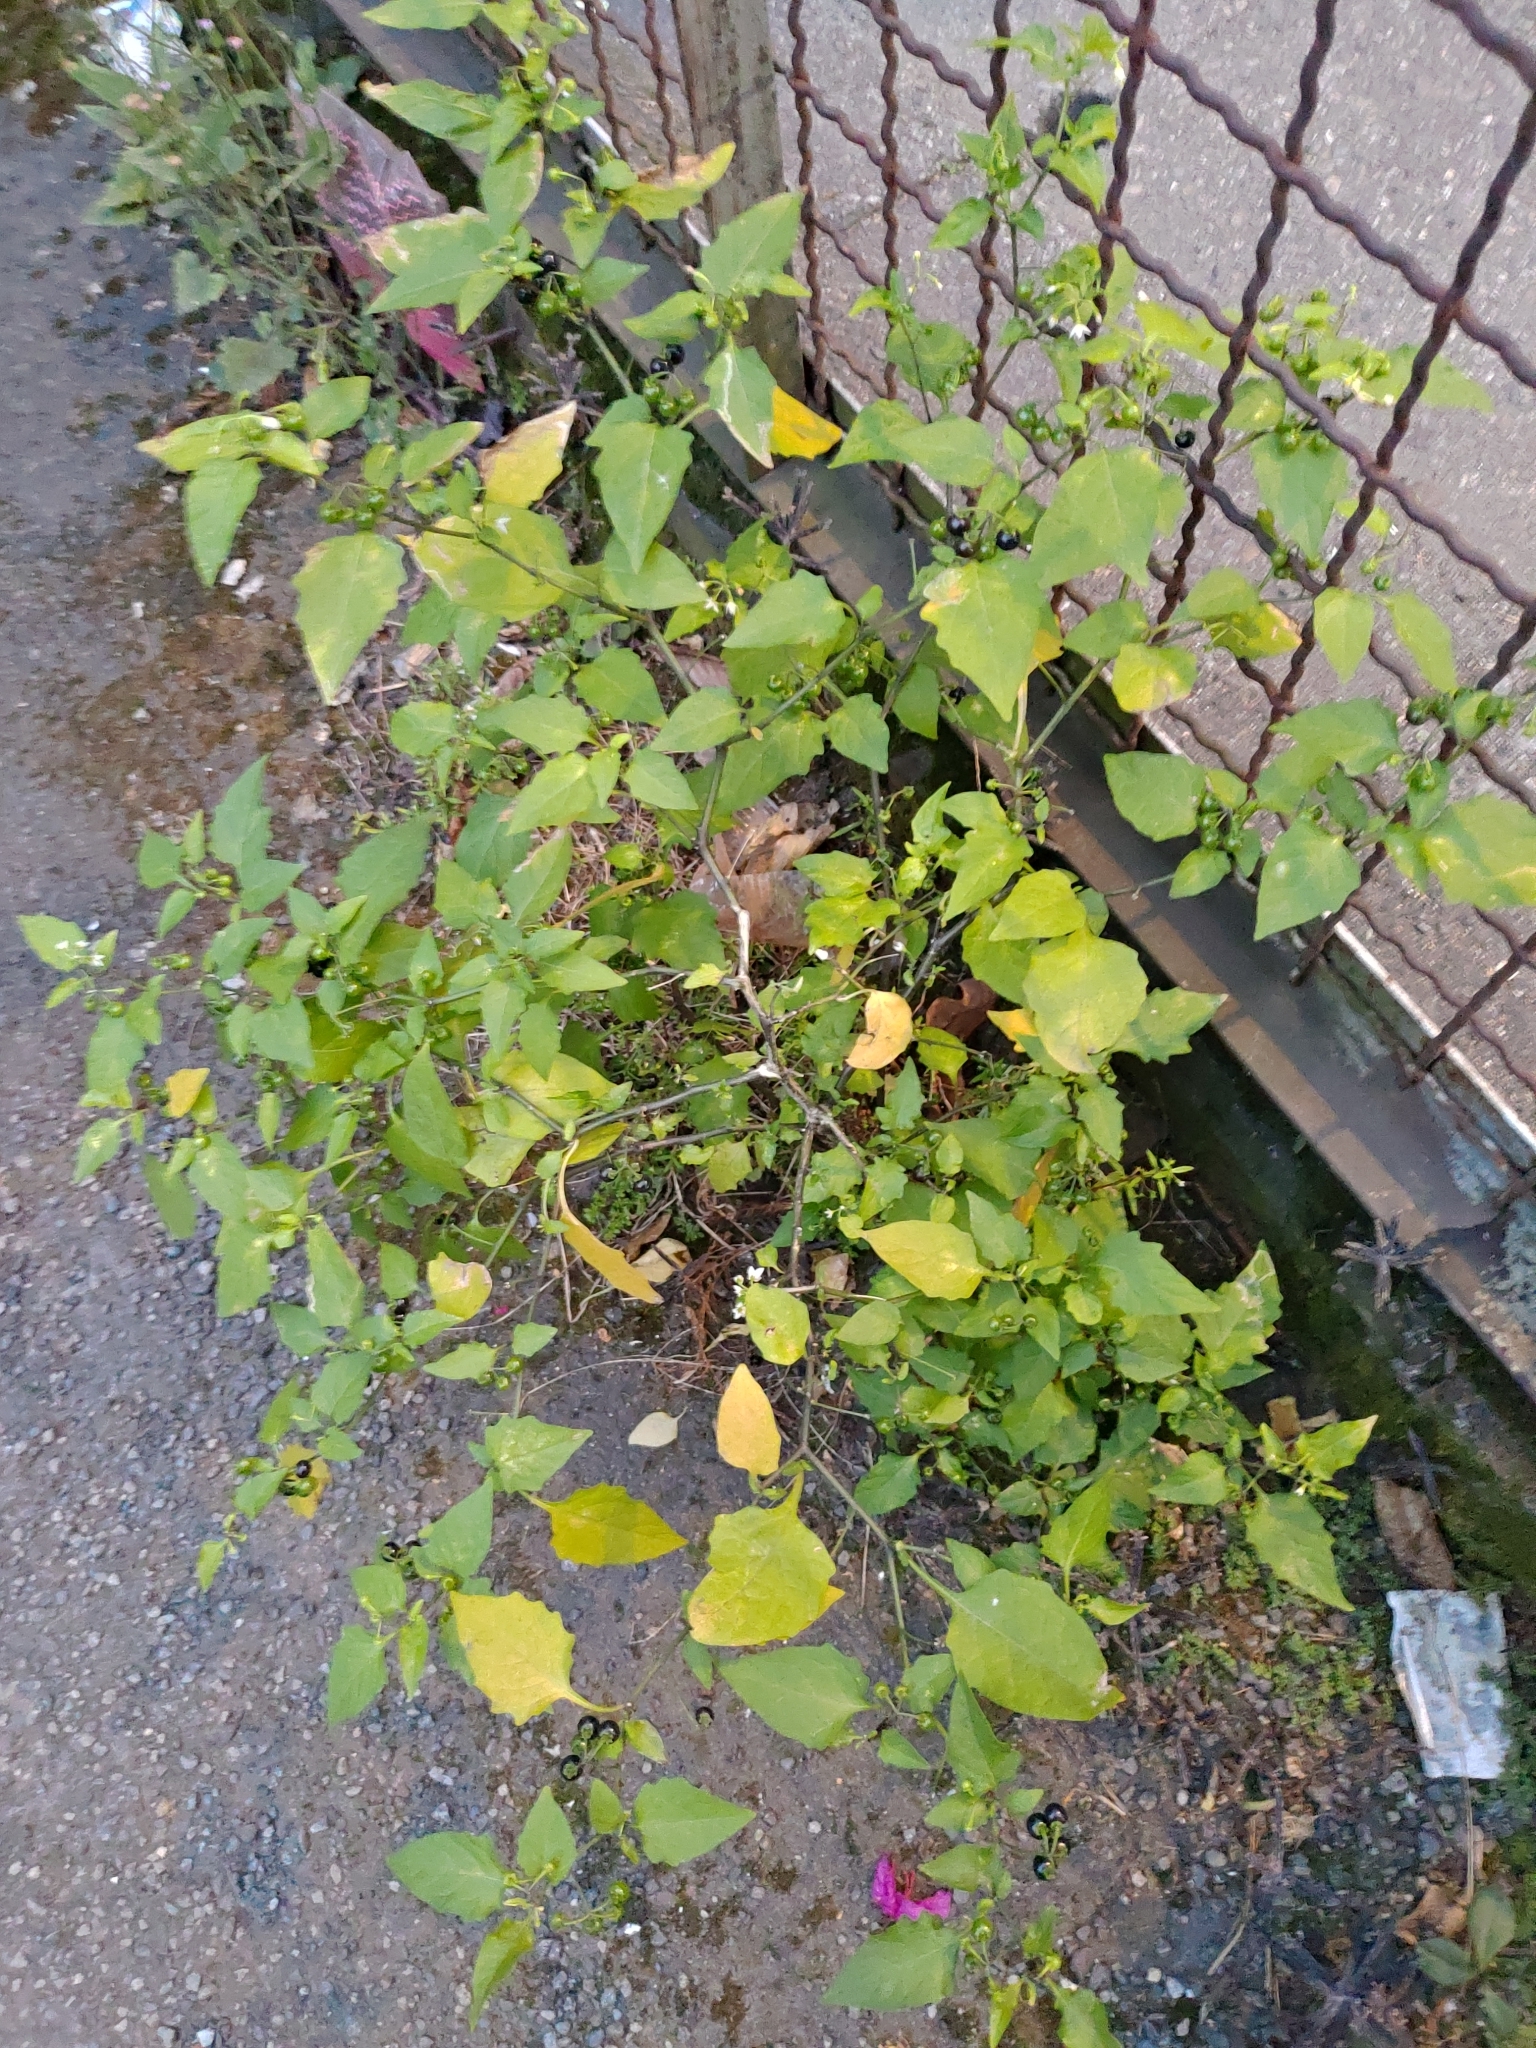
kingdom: Plantae
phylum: Tracheophyta
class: Magnoliopsida
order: Solanales
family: Solanaceae
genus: Solanum
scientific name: Solanum americanum
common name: American black nightshade
